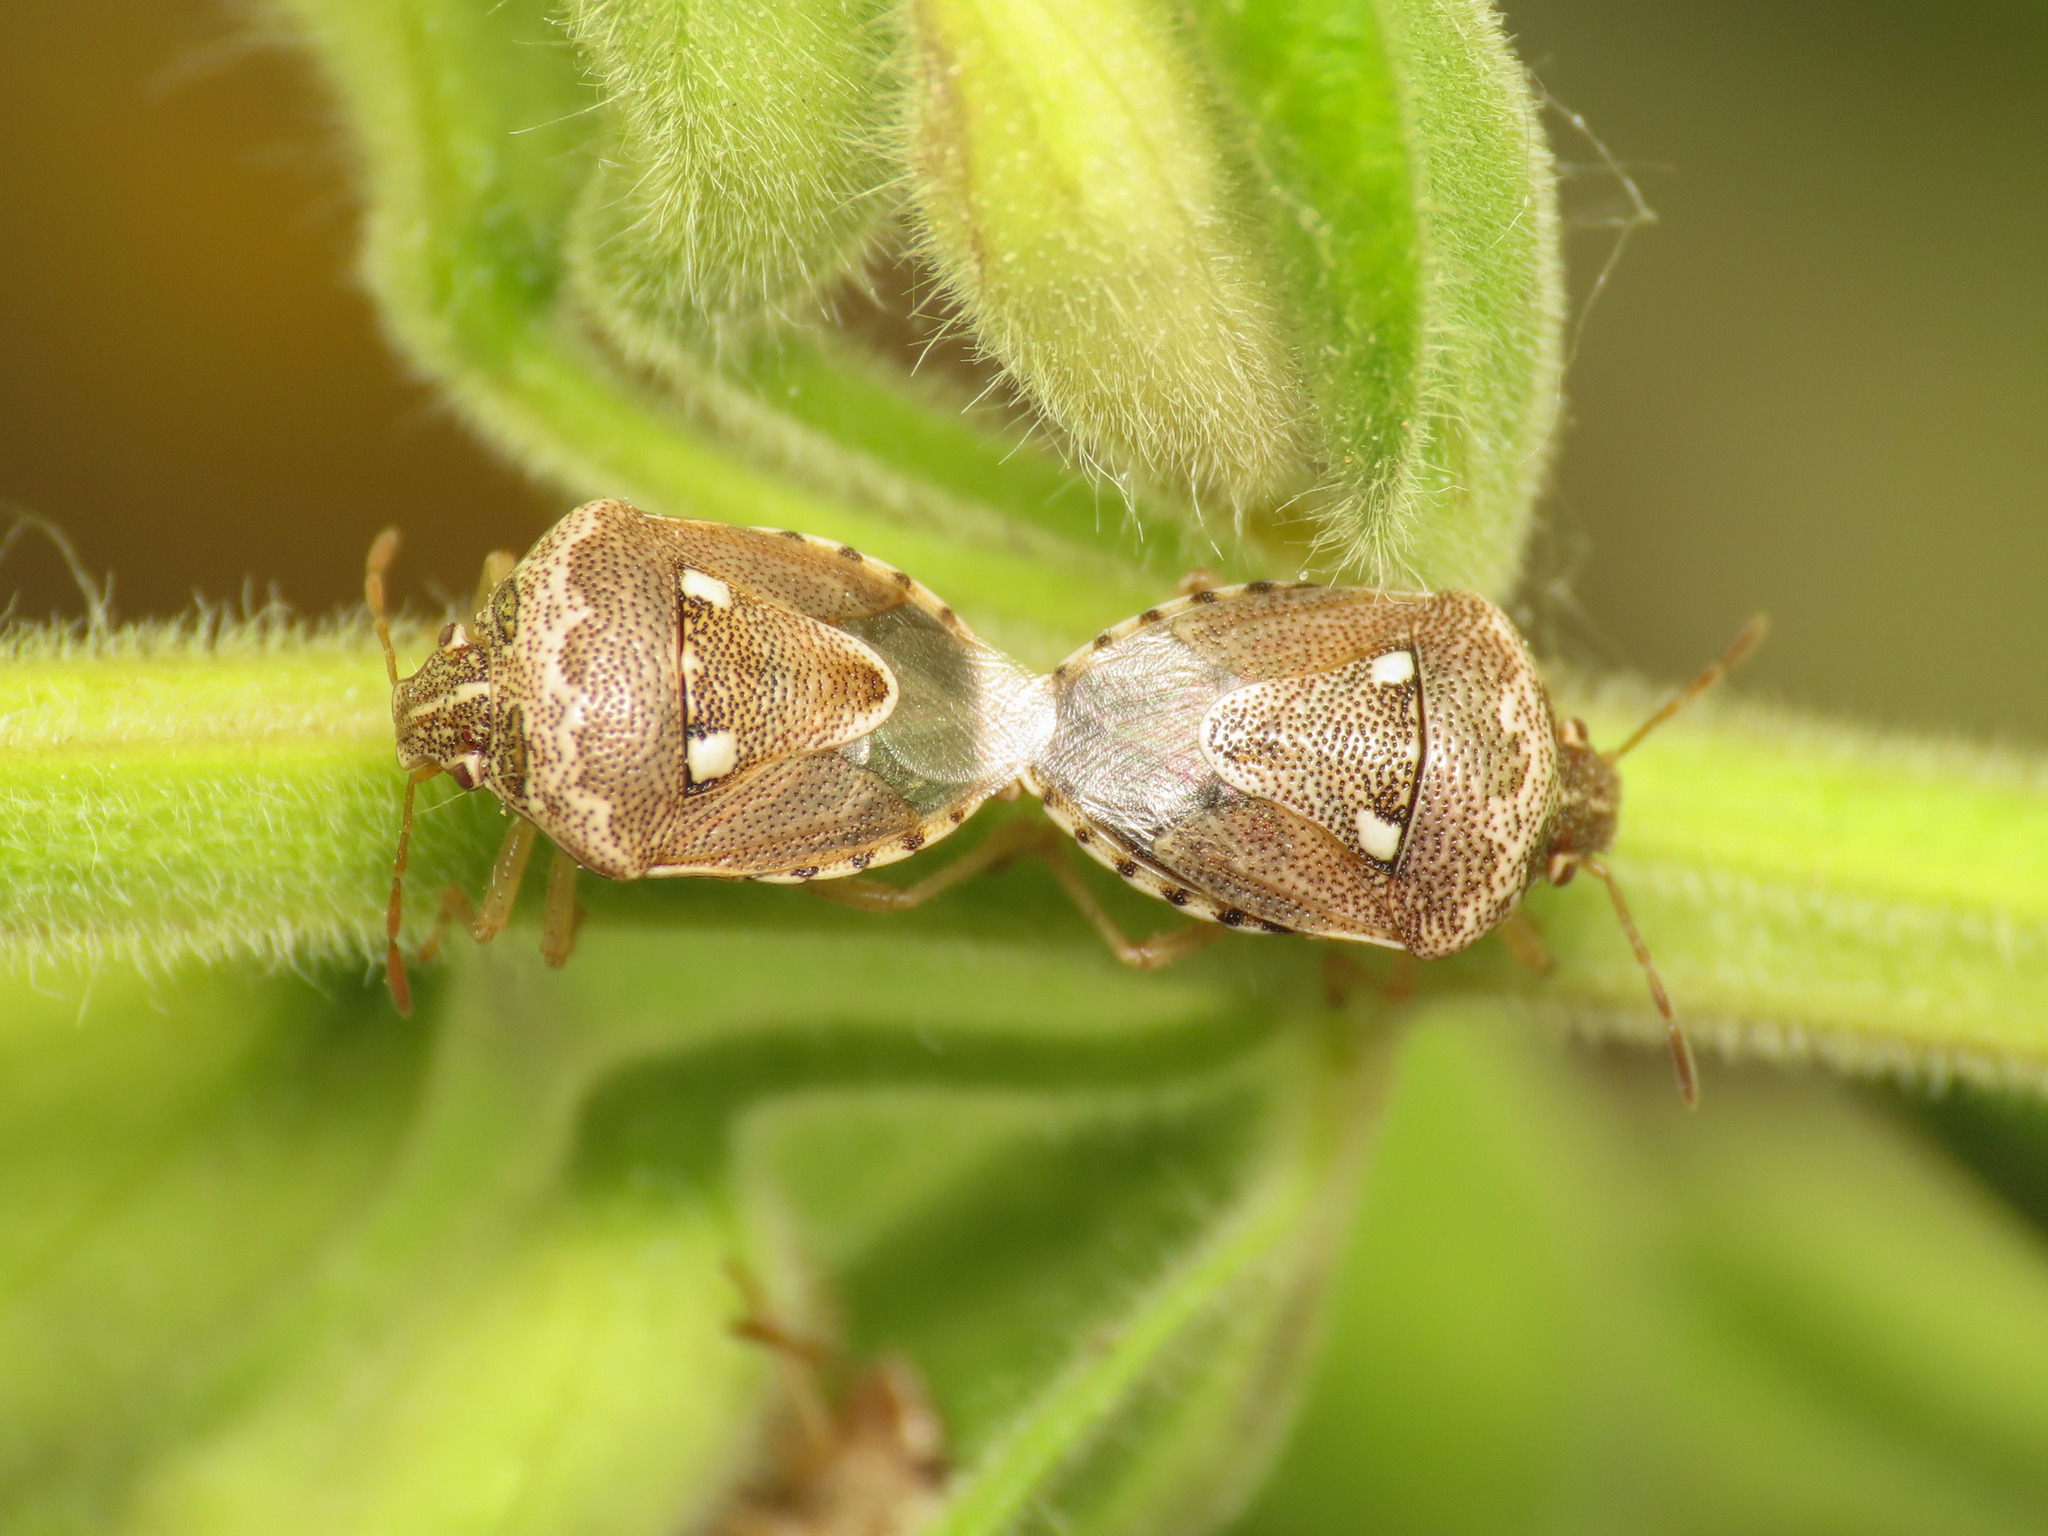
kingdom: Animalia
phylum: Arthropoda
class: Insecta
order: Hemiptera
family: Pentatomidae
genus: Stagonomus
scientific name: Stagonomus bipunctatus
